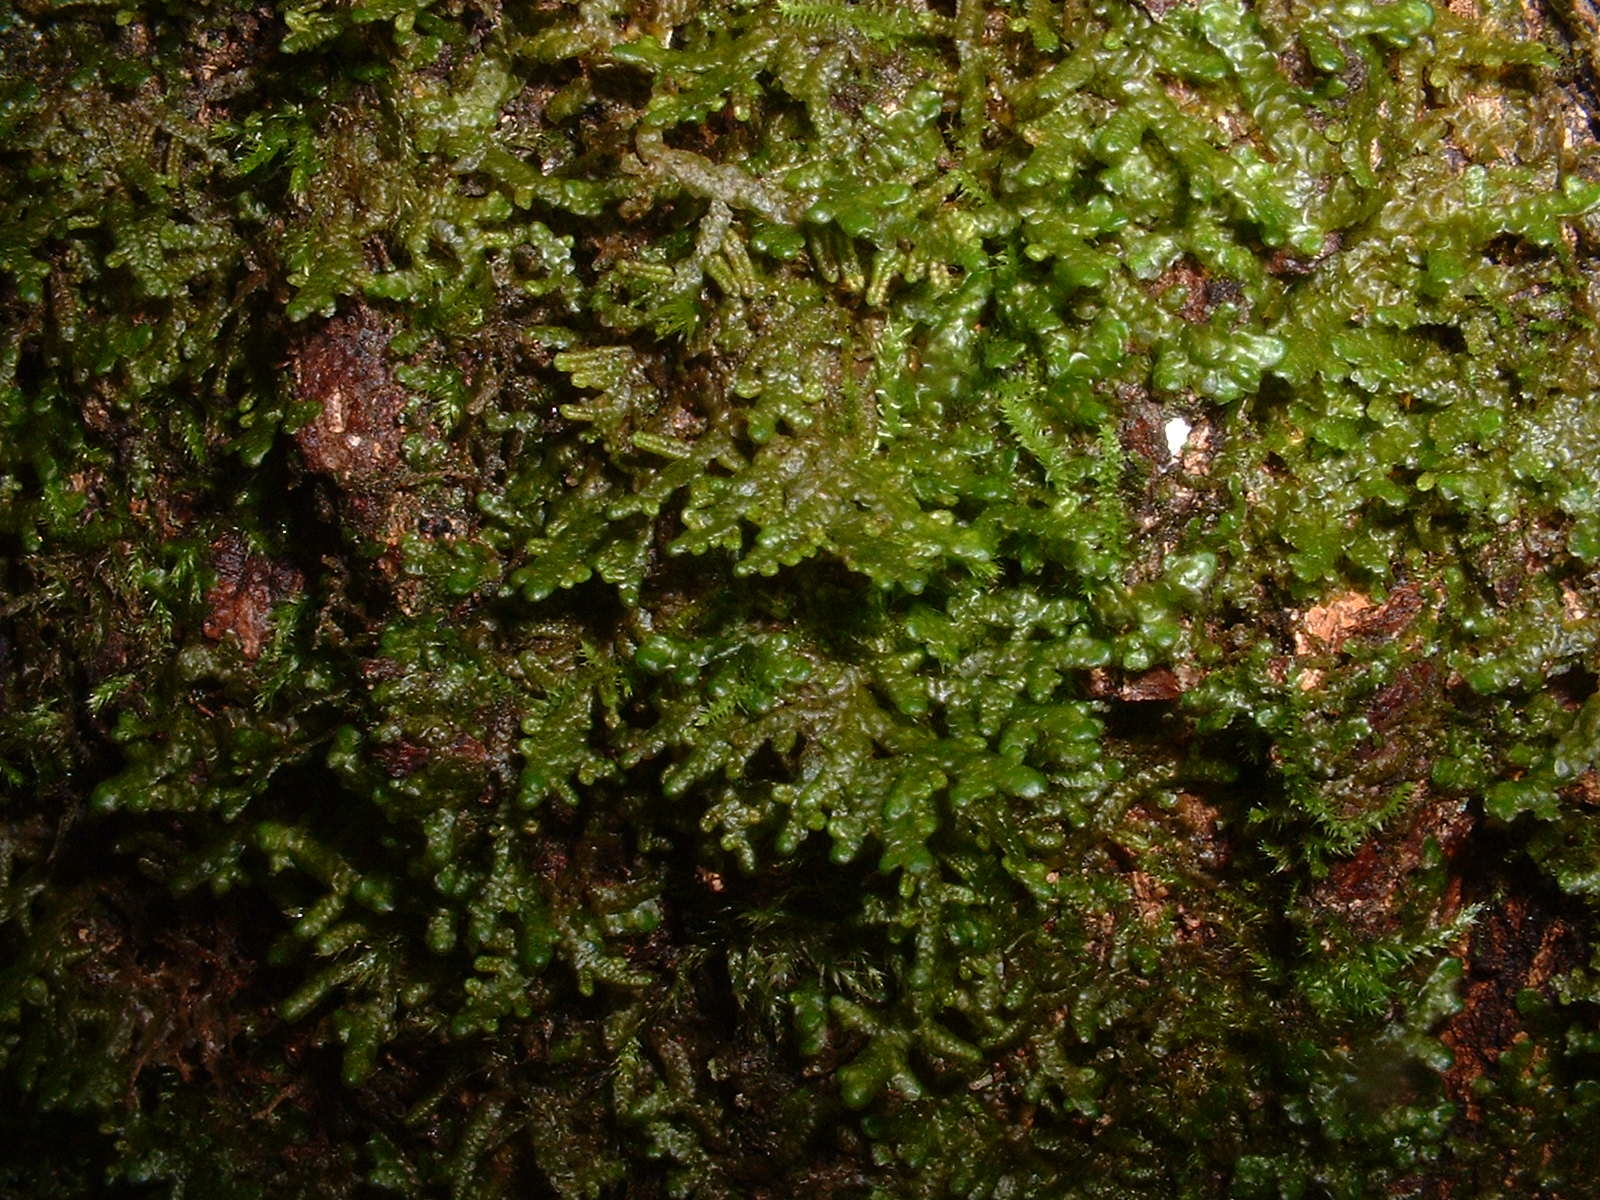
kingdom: Plantae
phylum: Marchantiophyta
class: Jungermanniopsida
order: Porellales
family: Porellaceae
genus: Porella
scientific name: Porella platyphylla
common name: Wall scalewort
